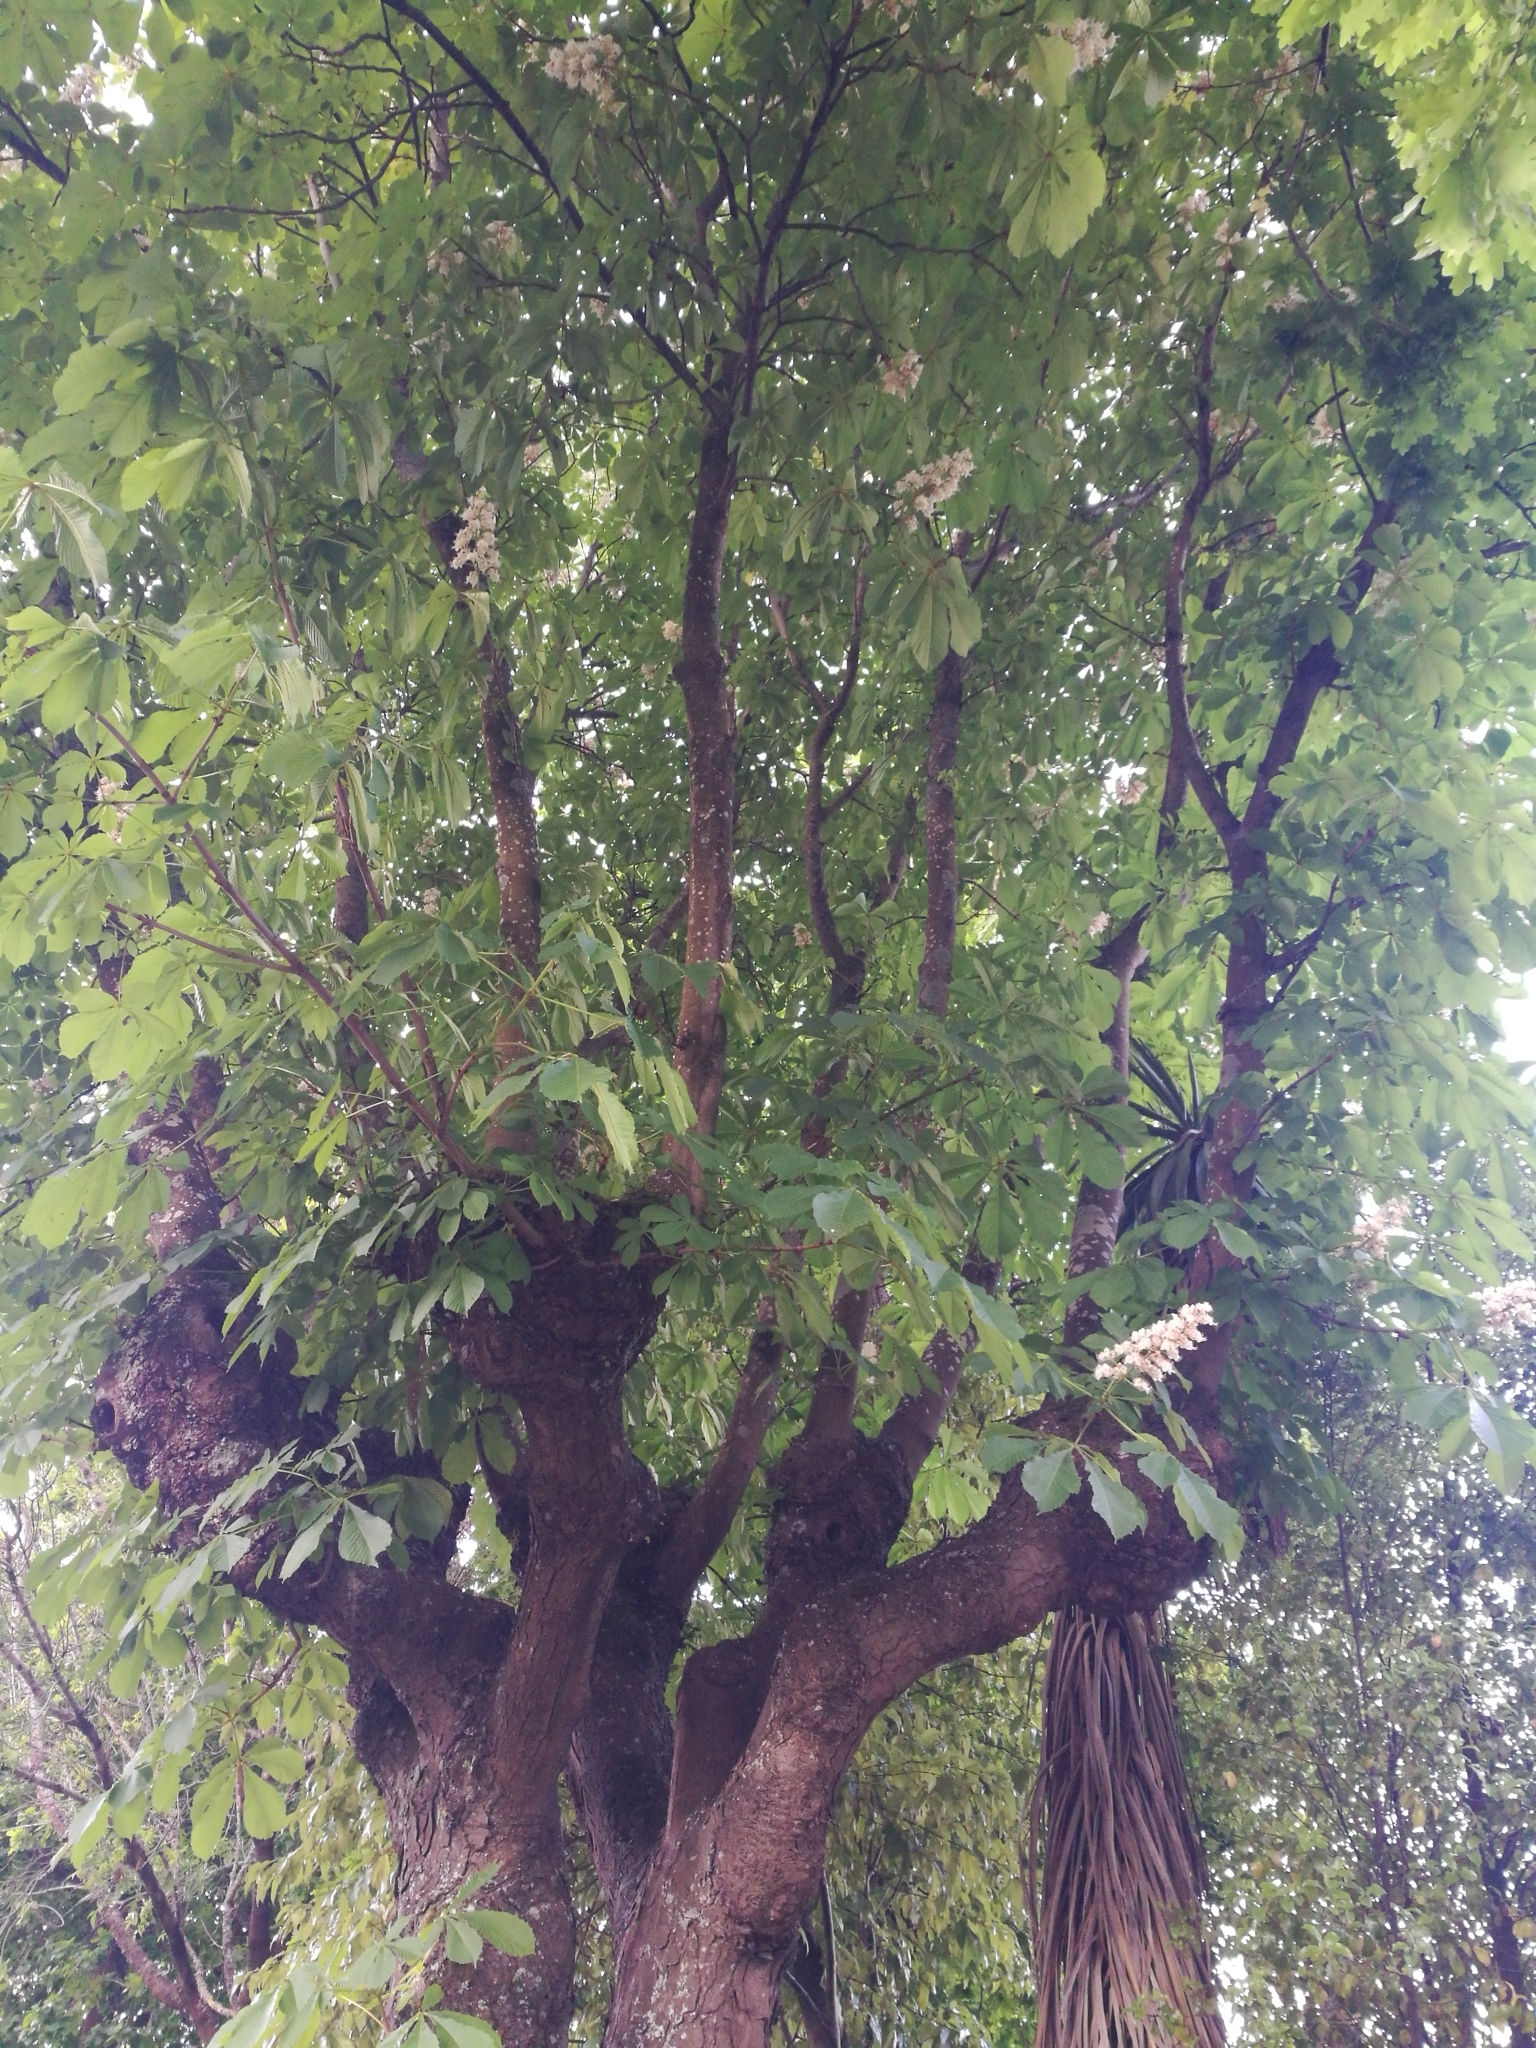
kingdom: Plantae
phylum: Tracheophyta
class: Magnoliopsida
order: Sapindales
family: Sapindaceae
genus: Aesculus
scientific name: Aesculus hippocastanum
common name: Horse-chestnut
